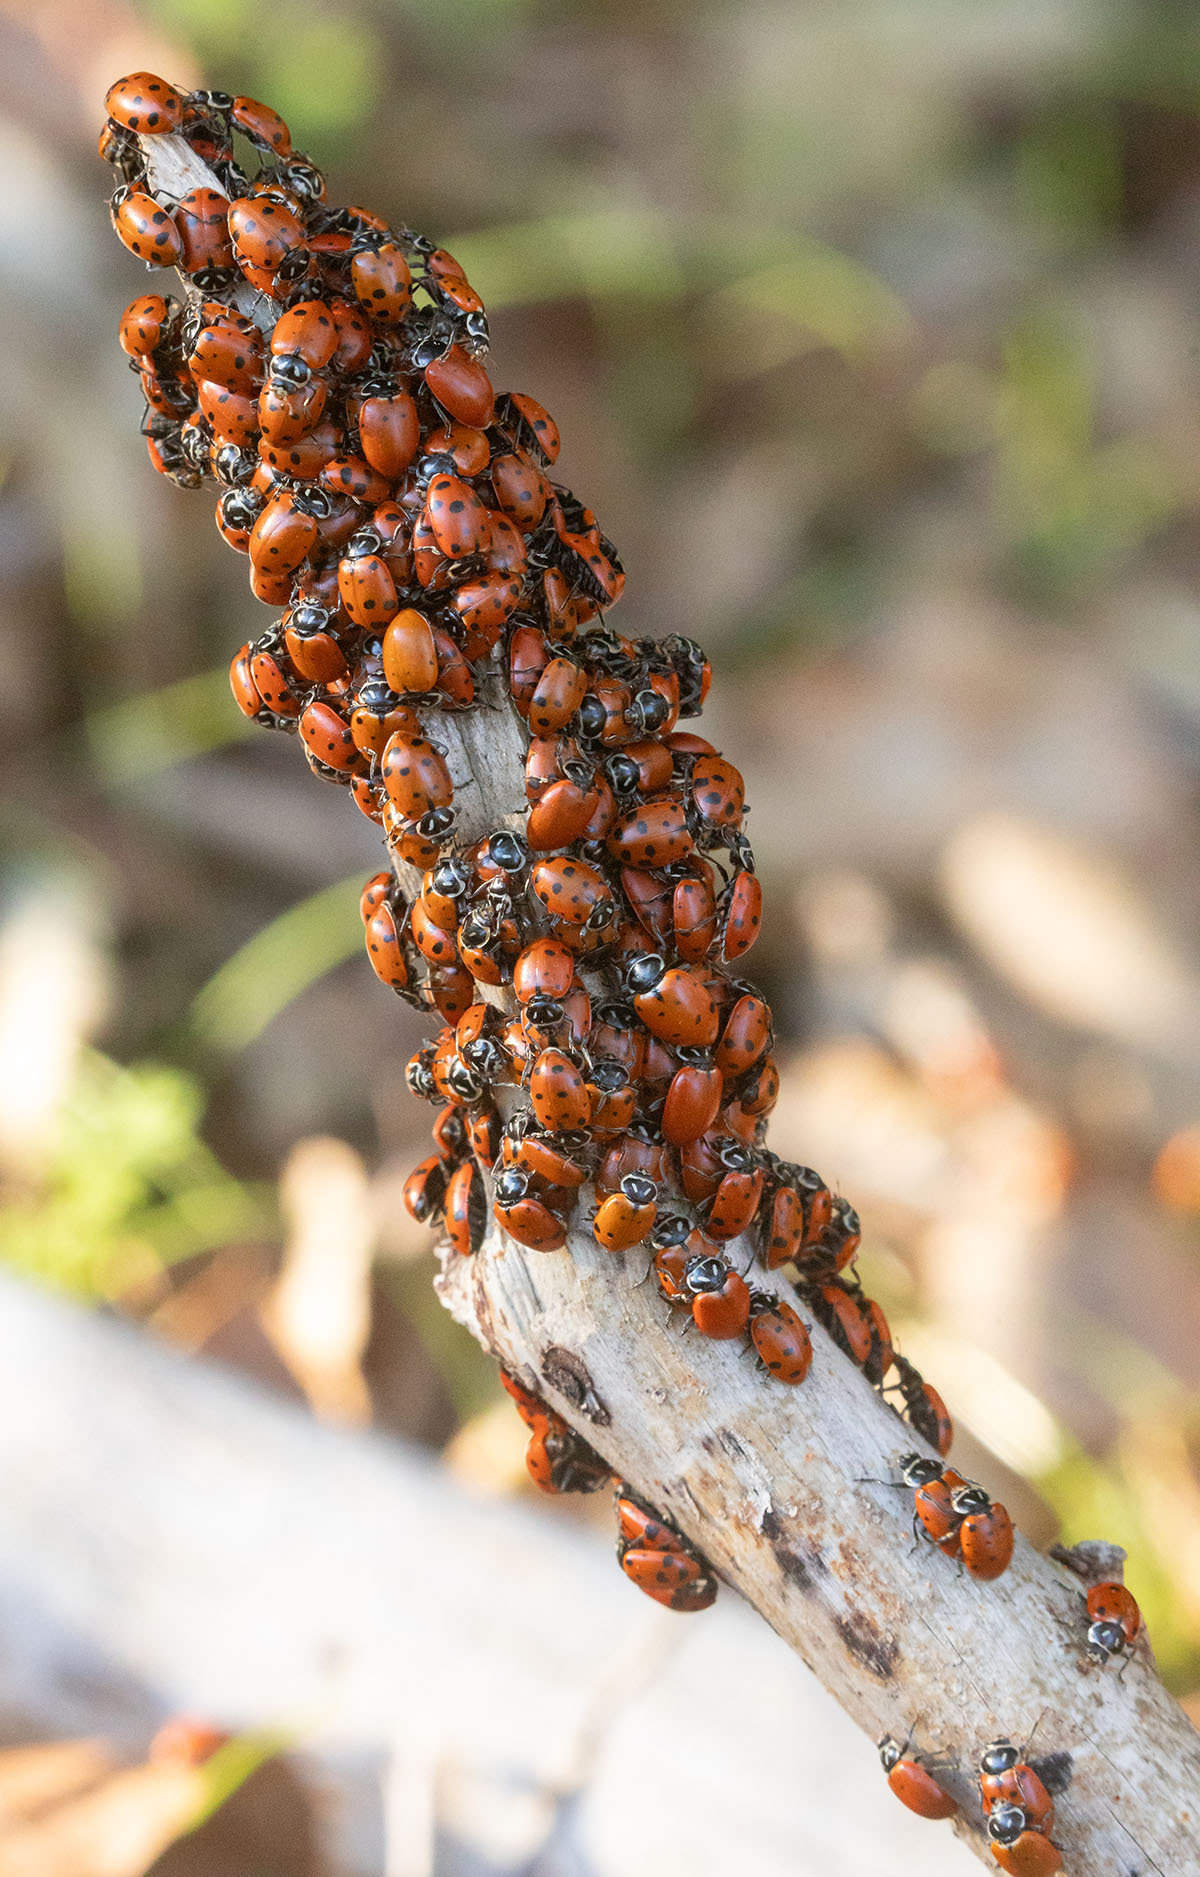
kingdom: Animalia
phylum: Arthropoda
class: Insecta
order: Coleoptera
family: Coccinellidae
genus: Hippodamia
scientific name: Hippodamia convergens
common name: Convergent lady beetle
